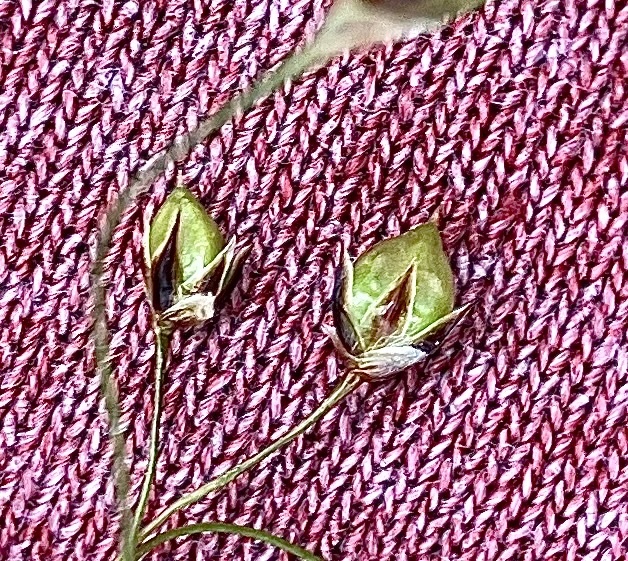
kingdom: Plantae
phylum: Tracheophyta
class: Liliopsida
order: Poales
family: Juncaceae
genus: Luzula
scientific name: Luzula acuminata
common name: Hairy woodrush
